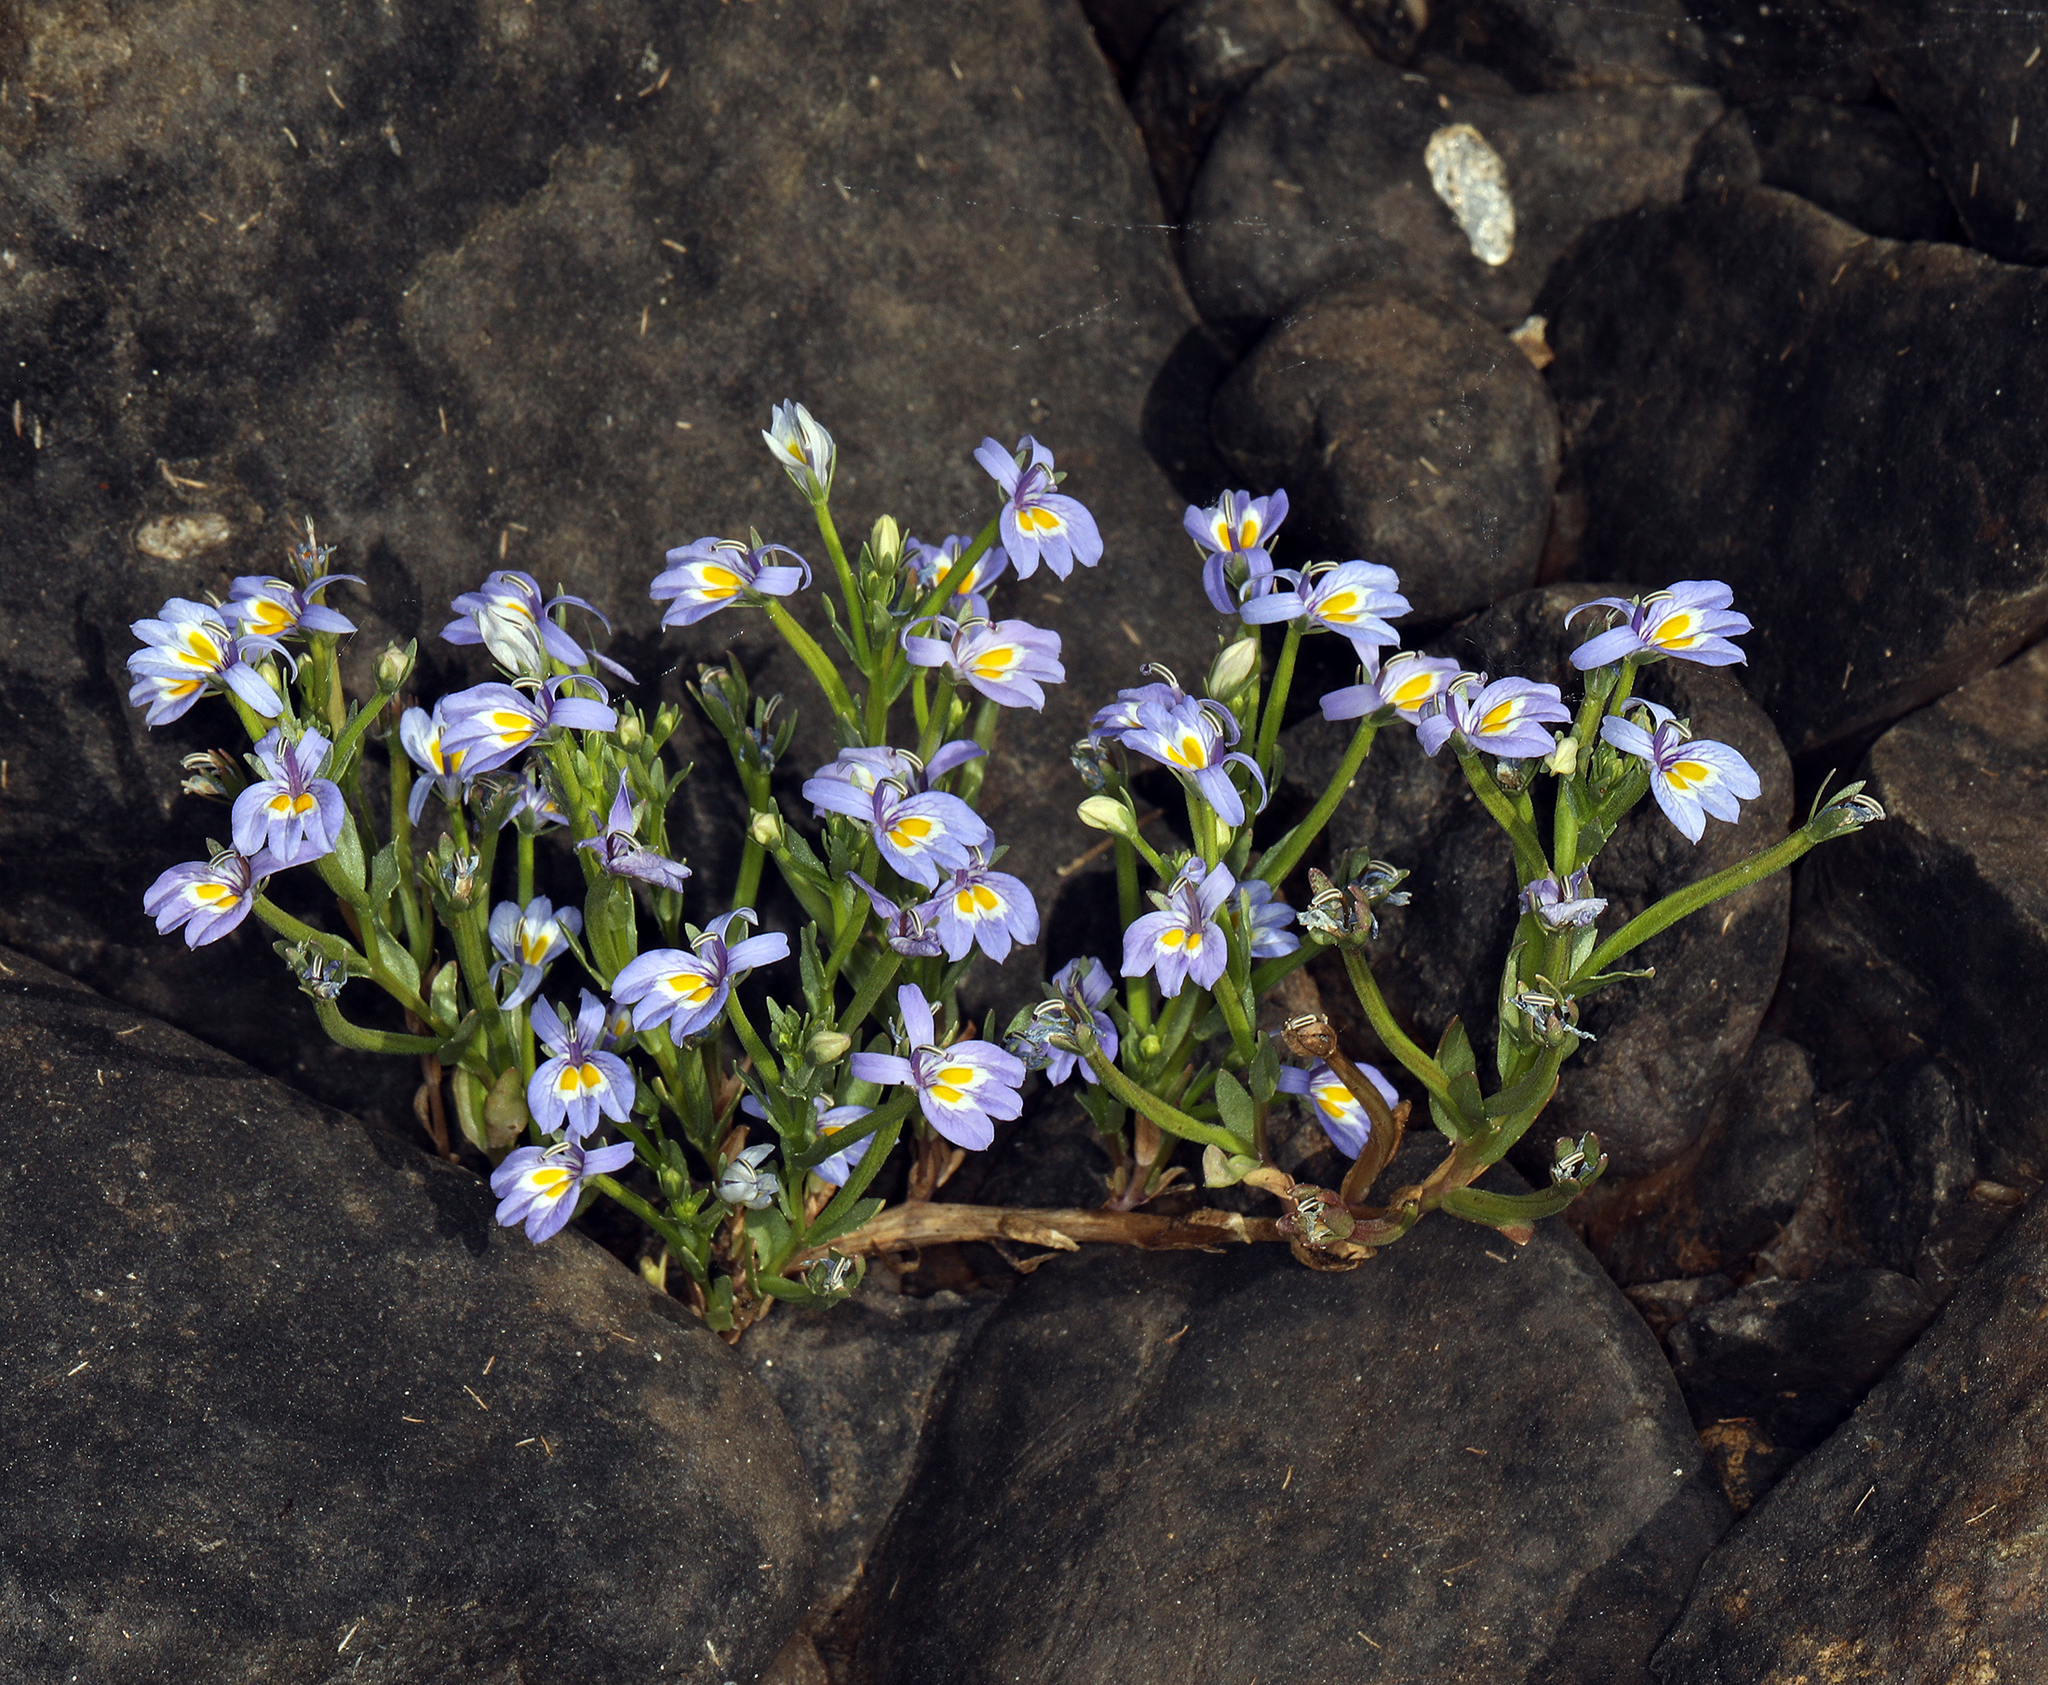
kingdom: Plantae
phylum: Tracheophyta
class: Magnoliopsida
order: Asterales
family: Campanulaceae
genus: Downingia
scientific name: Downingia bacigalupii
